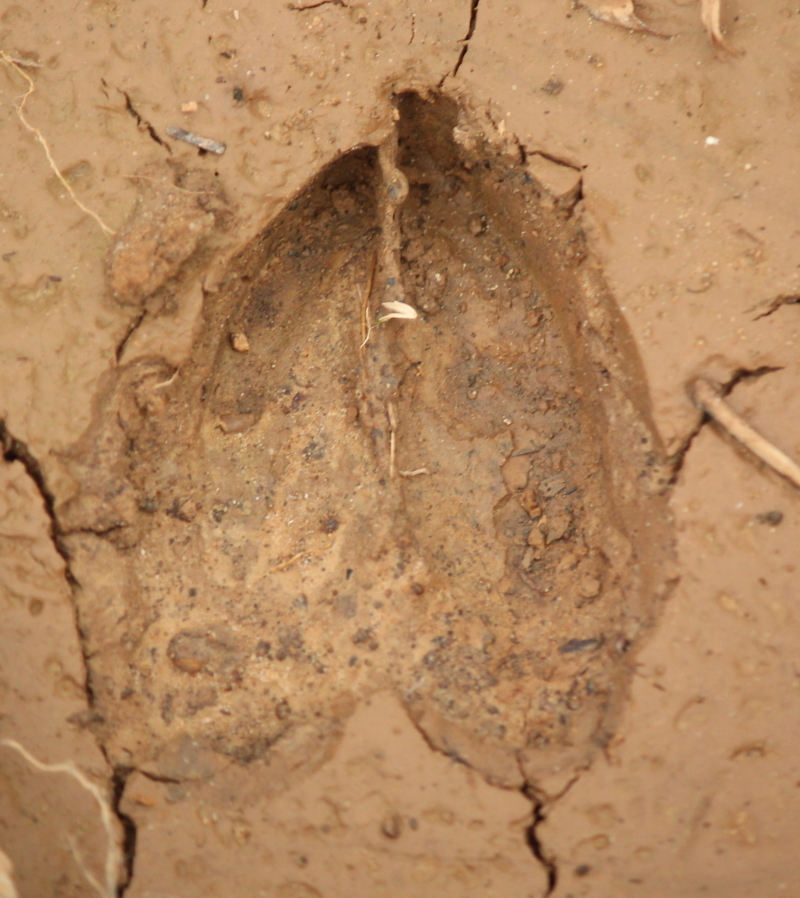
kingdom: Animalia
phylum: Chordata
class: Mammalia
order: Artiodactyla
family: Cervidae
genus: Odocoileus
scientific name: Odocoileus virginianus
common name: White-tailed deer
